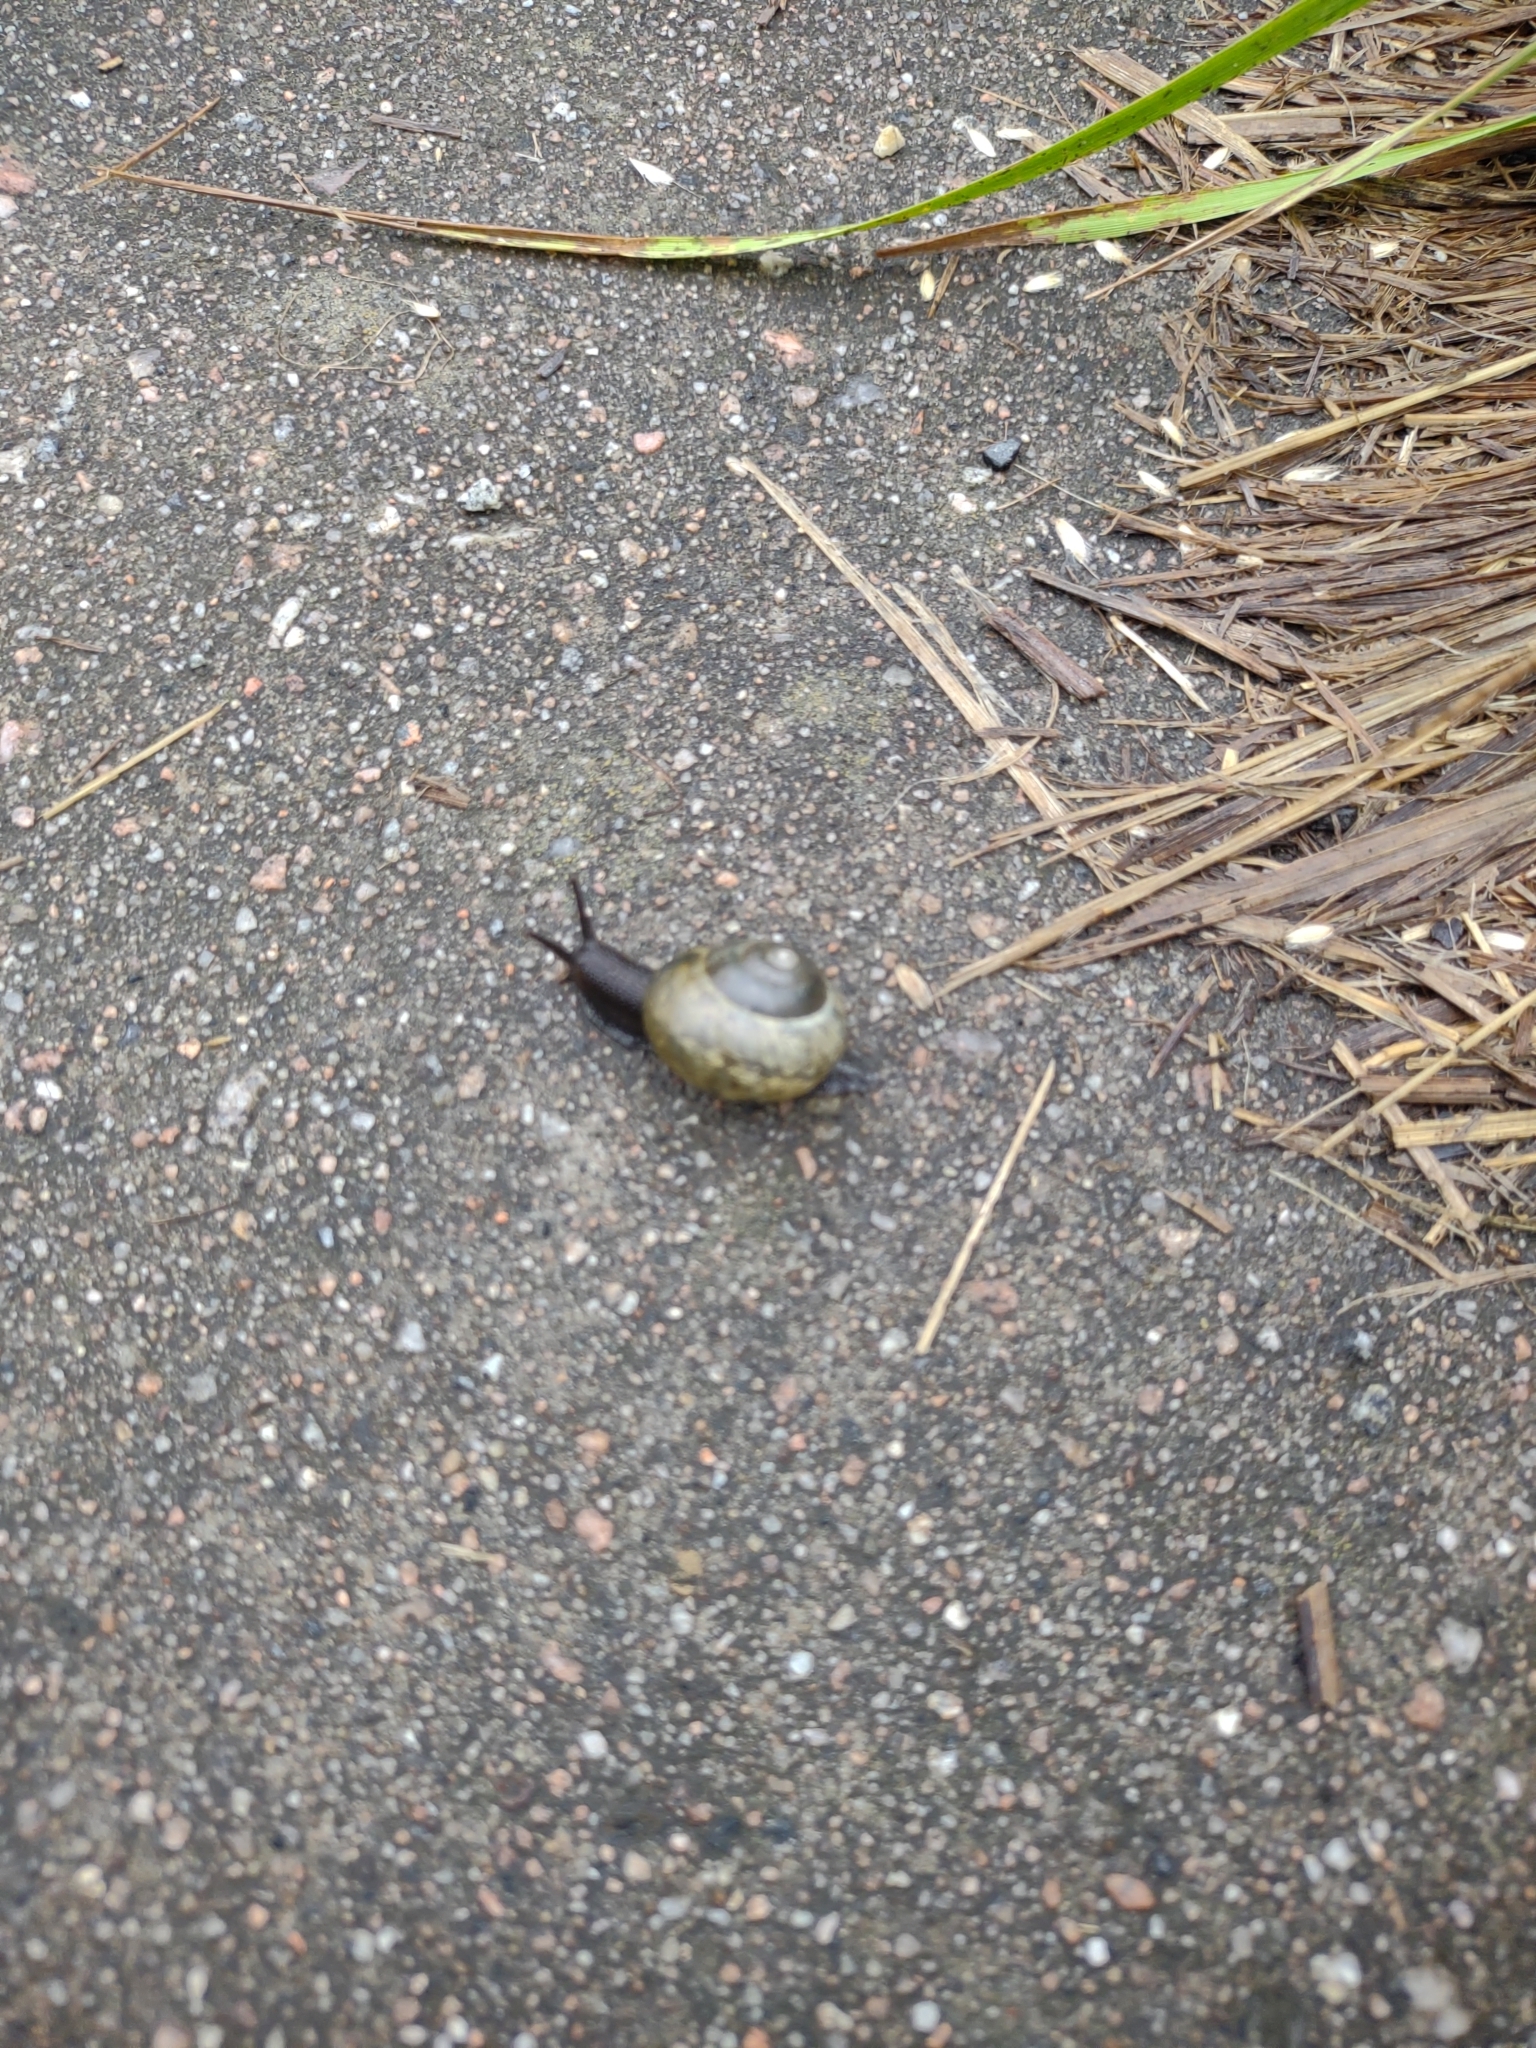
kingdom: Animalia
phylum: Mollusca
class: Gastropoda
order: Stylommatophora
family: Helicidae
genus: Arianta
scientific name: Arianta arbustorum
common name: Copse snail
